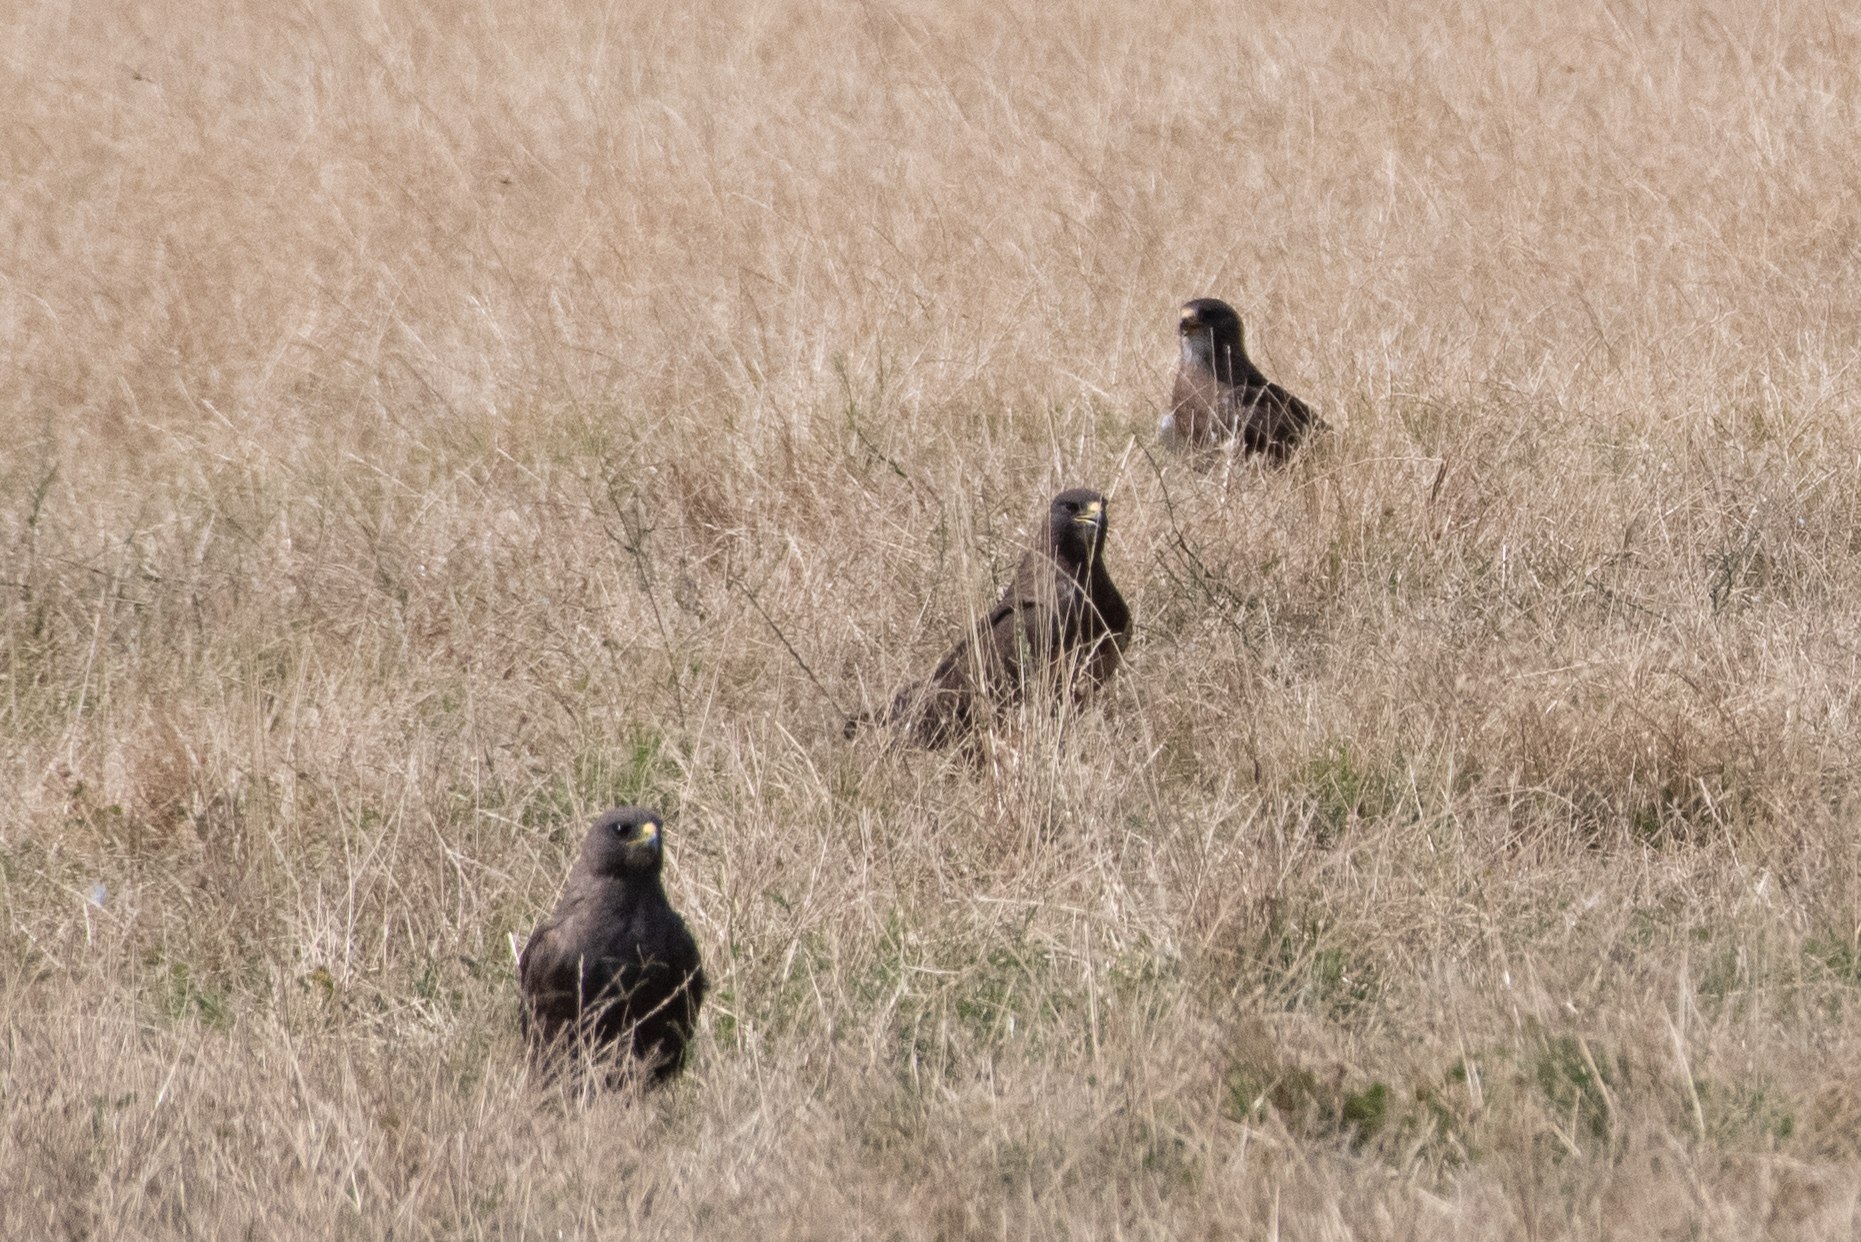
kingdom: Animalia
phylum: Chordata
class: Aves
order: Accipitriformes
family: Accipitridae
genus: Buteo
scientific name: Buteo swainsoni
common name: Swainson's hawk
